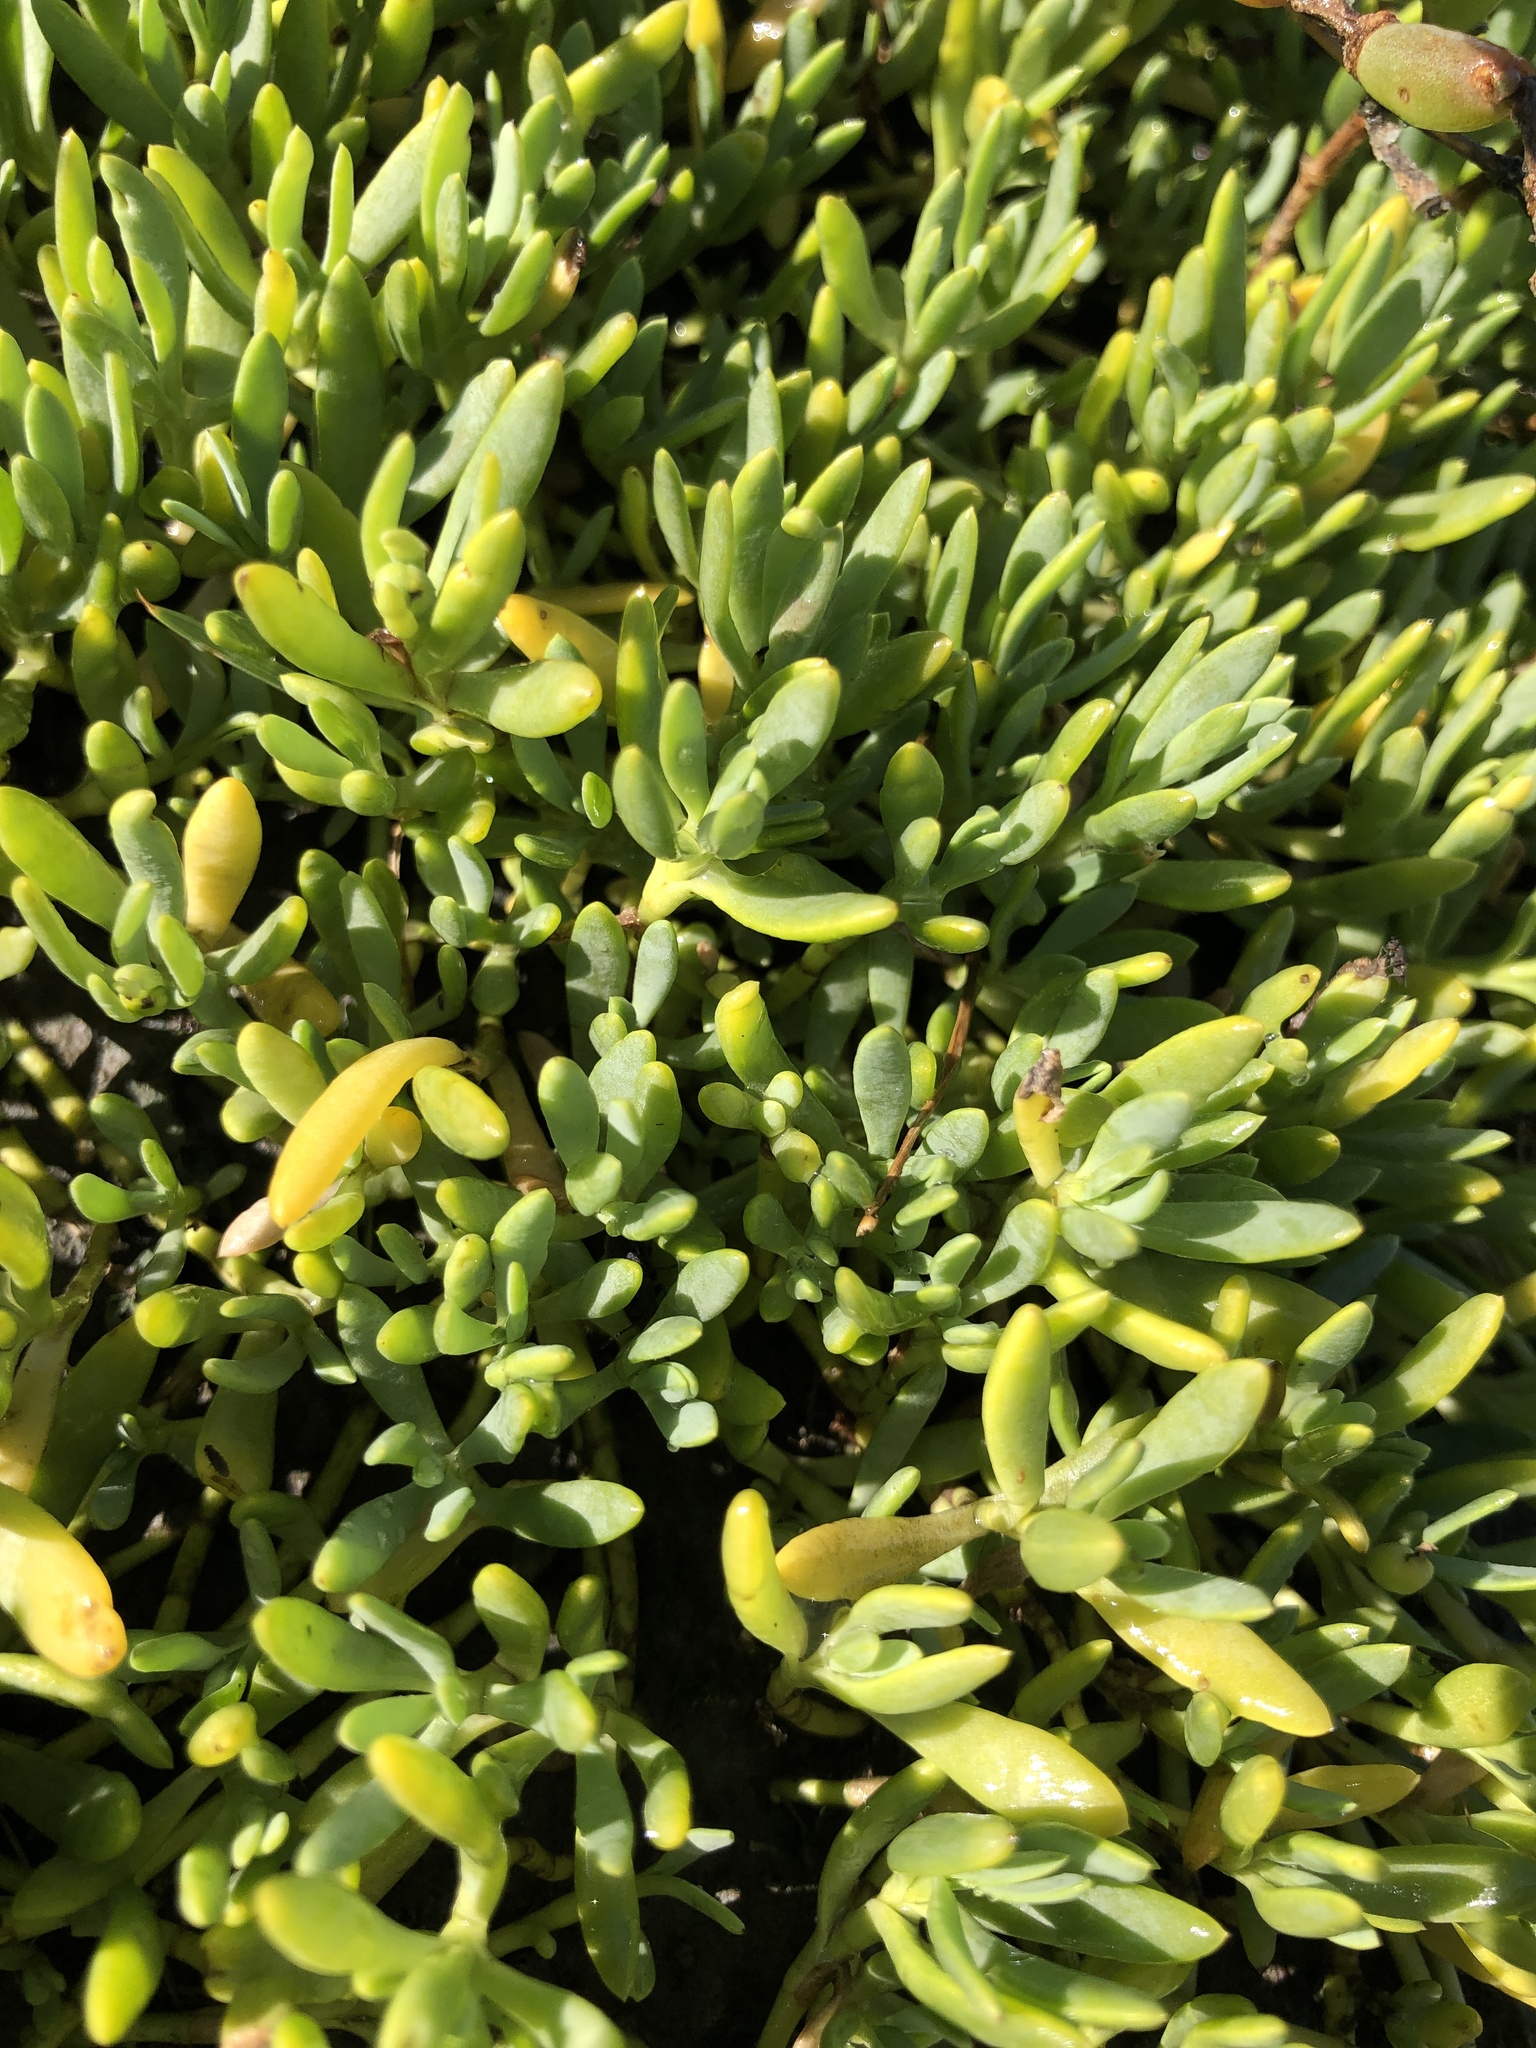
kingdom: Plantae
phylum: Tracheophyta
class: Magnoliopsida
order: Asterales
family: Asteraceae
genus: Jaumea
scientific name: Jaumea carnosa
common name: Fleshy jaumea
